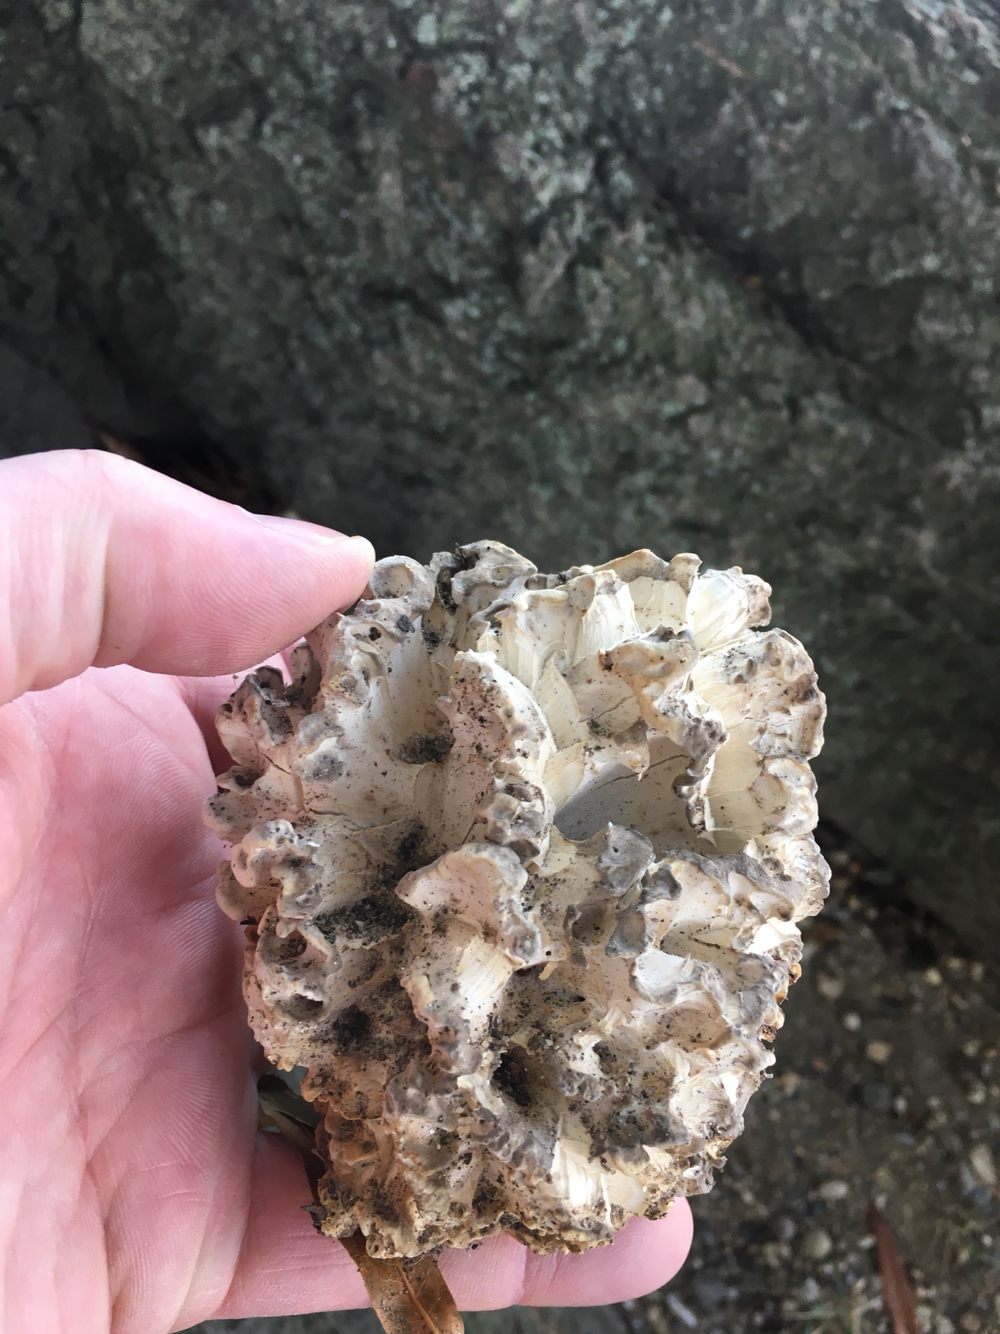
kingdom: Fungi
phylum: Basidiomycota
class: Agaricomycetes
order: Polyporales
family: Grifolaceae
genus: Grifola
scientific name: Grifola frondosa
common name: Hen of the woods
